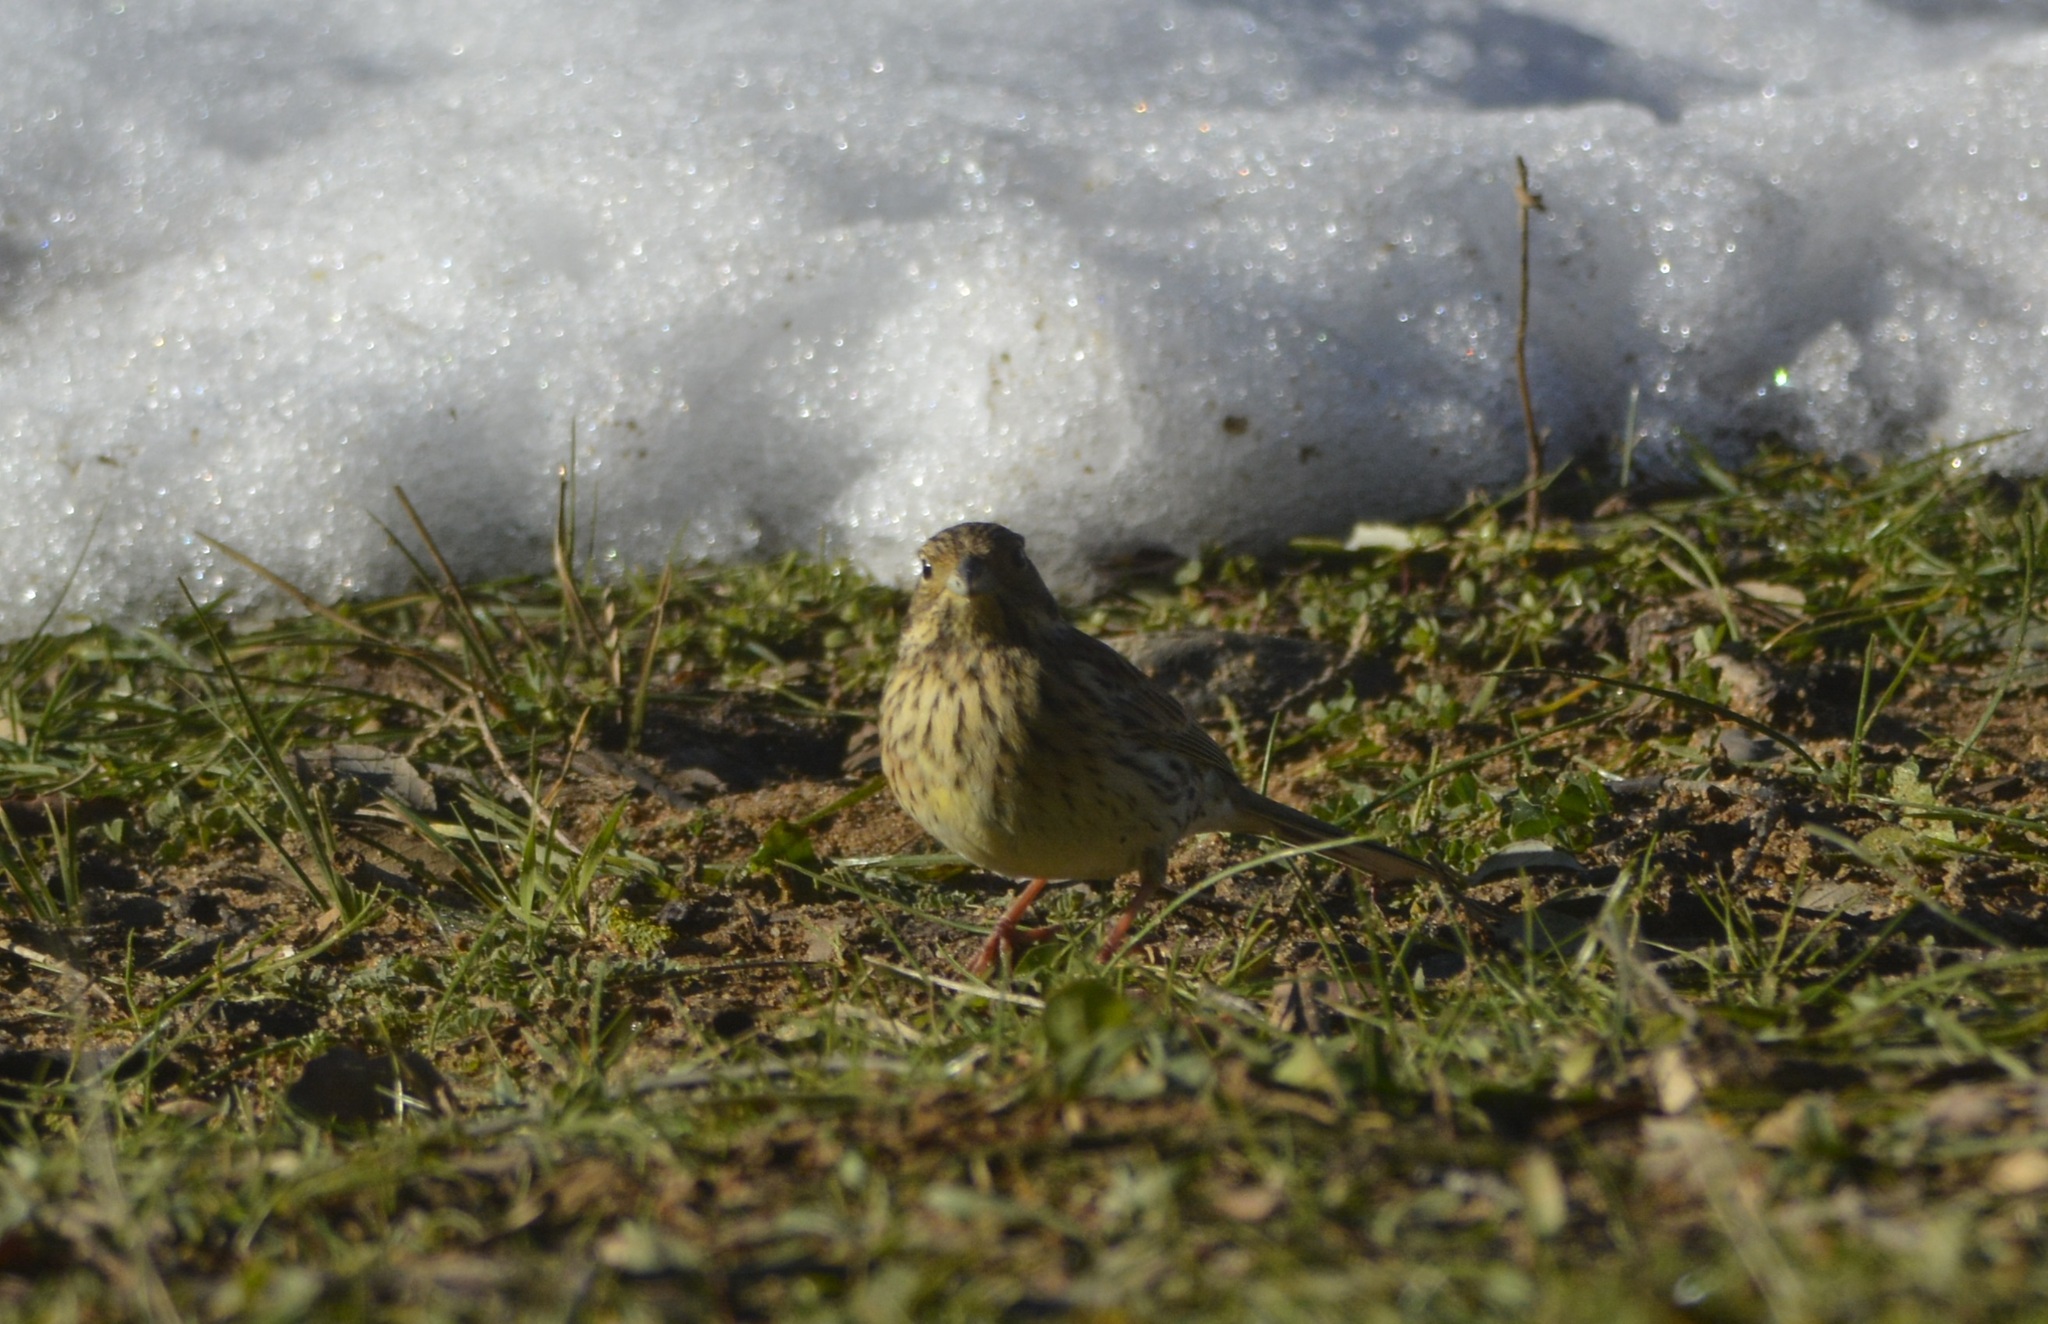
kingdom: Animalia
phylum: Chordata
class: Aves
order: Passeriformes
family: Emberizidae
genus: Emberiza
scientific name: Emberiza cirlus
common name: Cirl bunting
